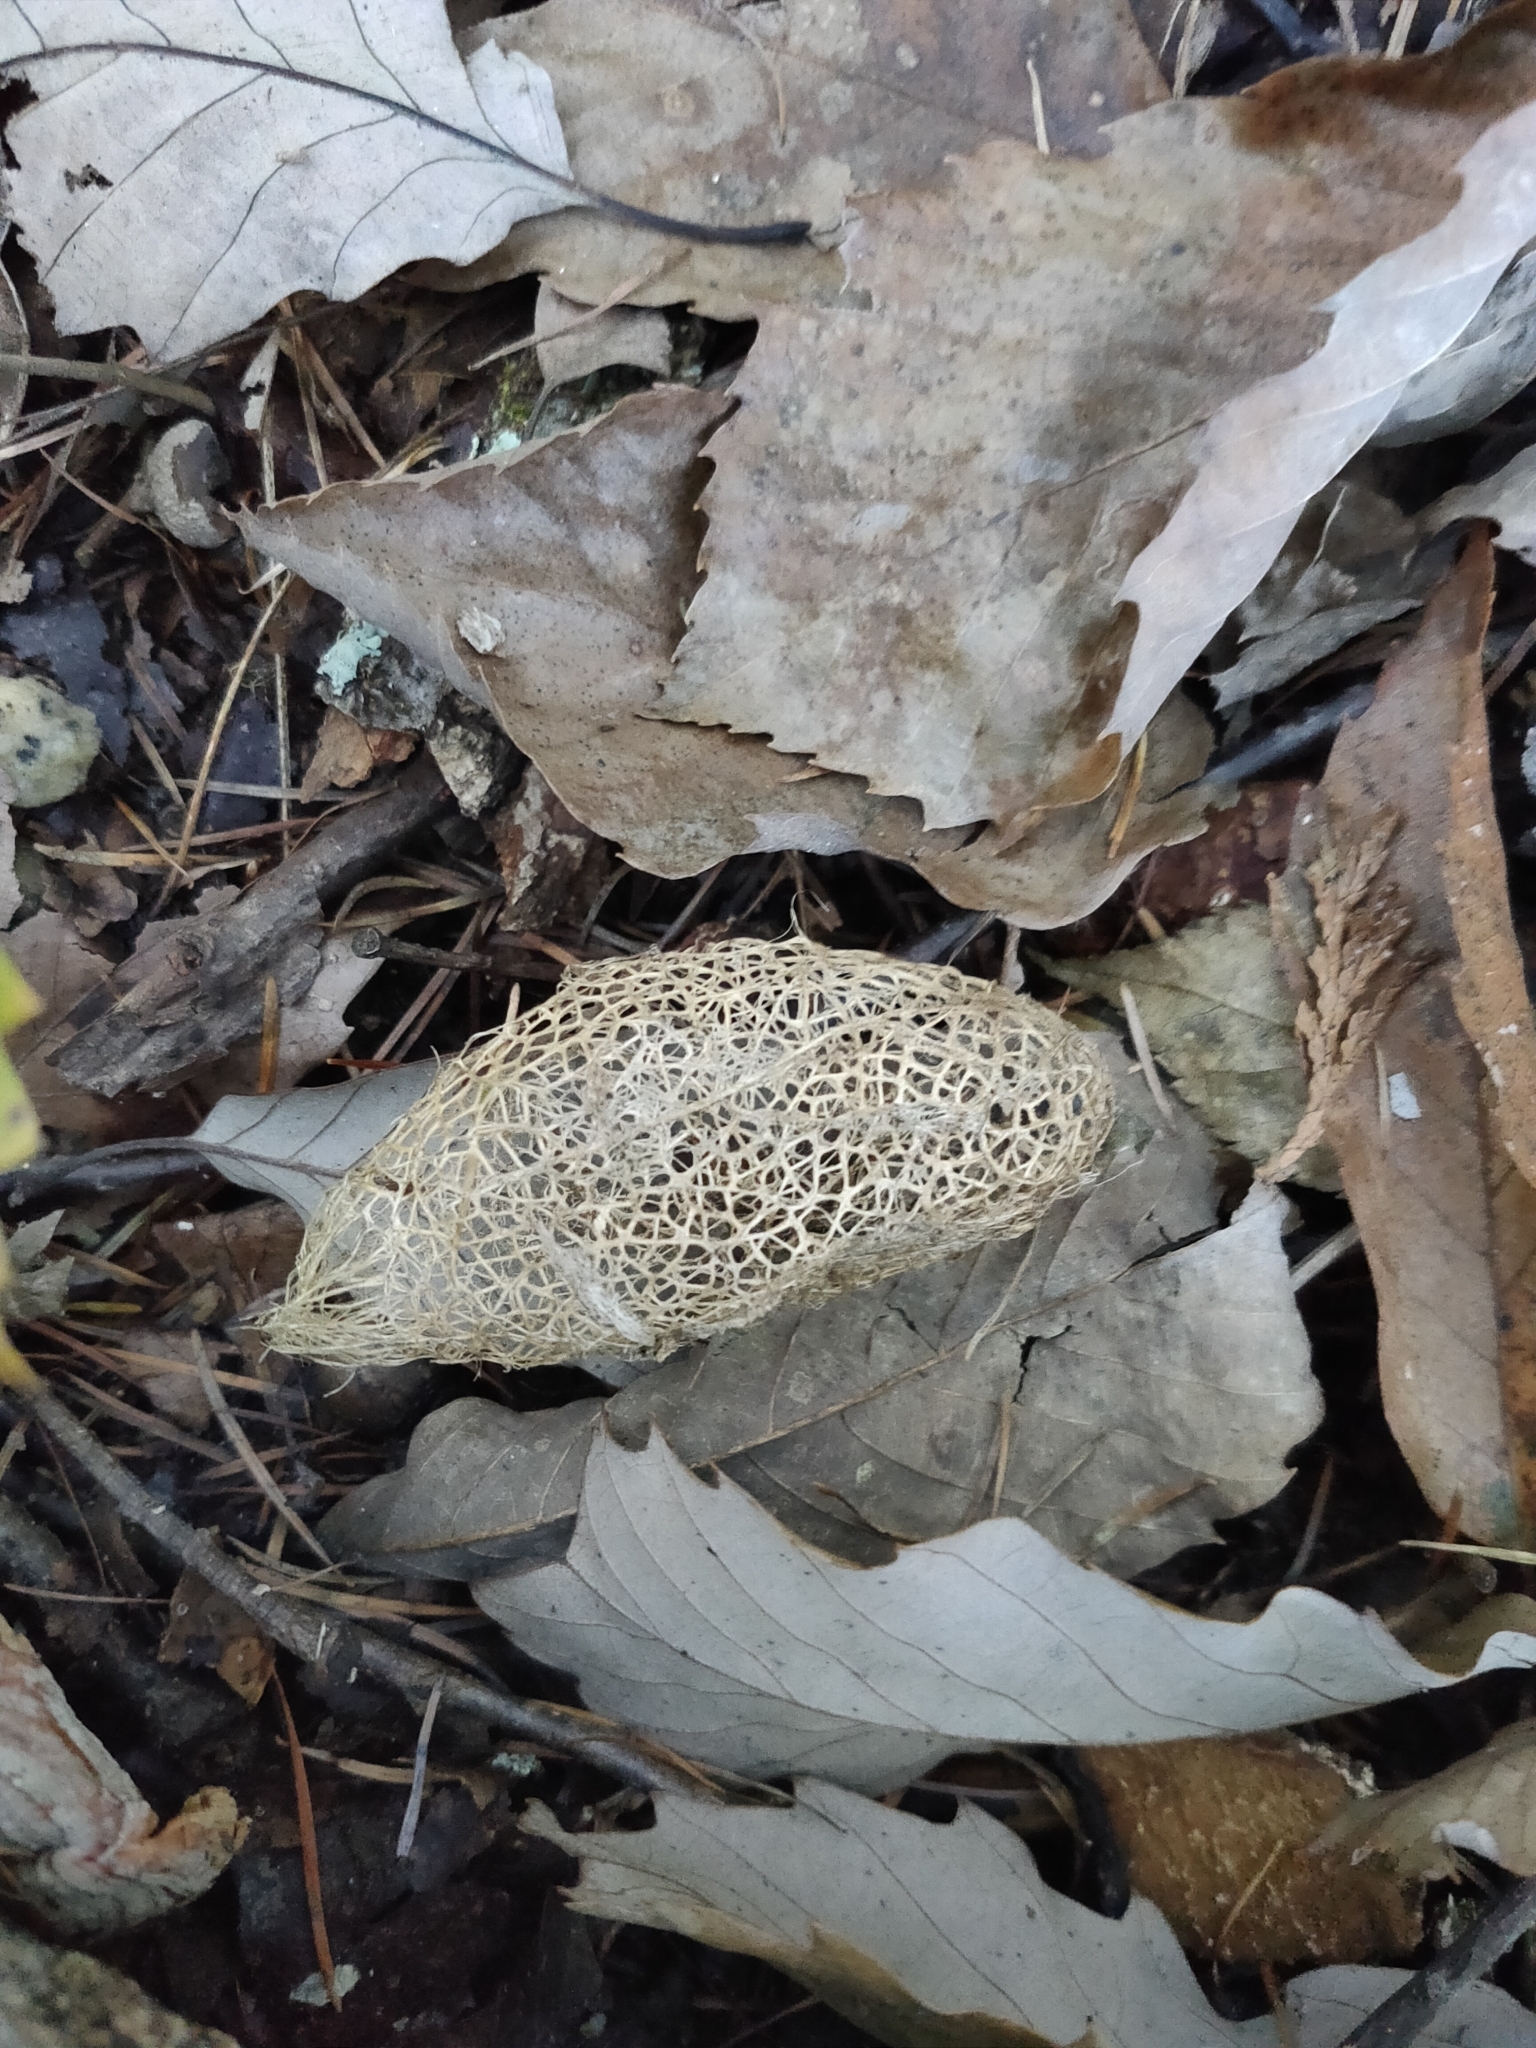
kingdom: Animalia
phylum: Arthropoda
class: Insecta
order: Lepidoptera
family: Saturniidae
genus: Saturnia
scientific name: Saturnia japonica
